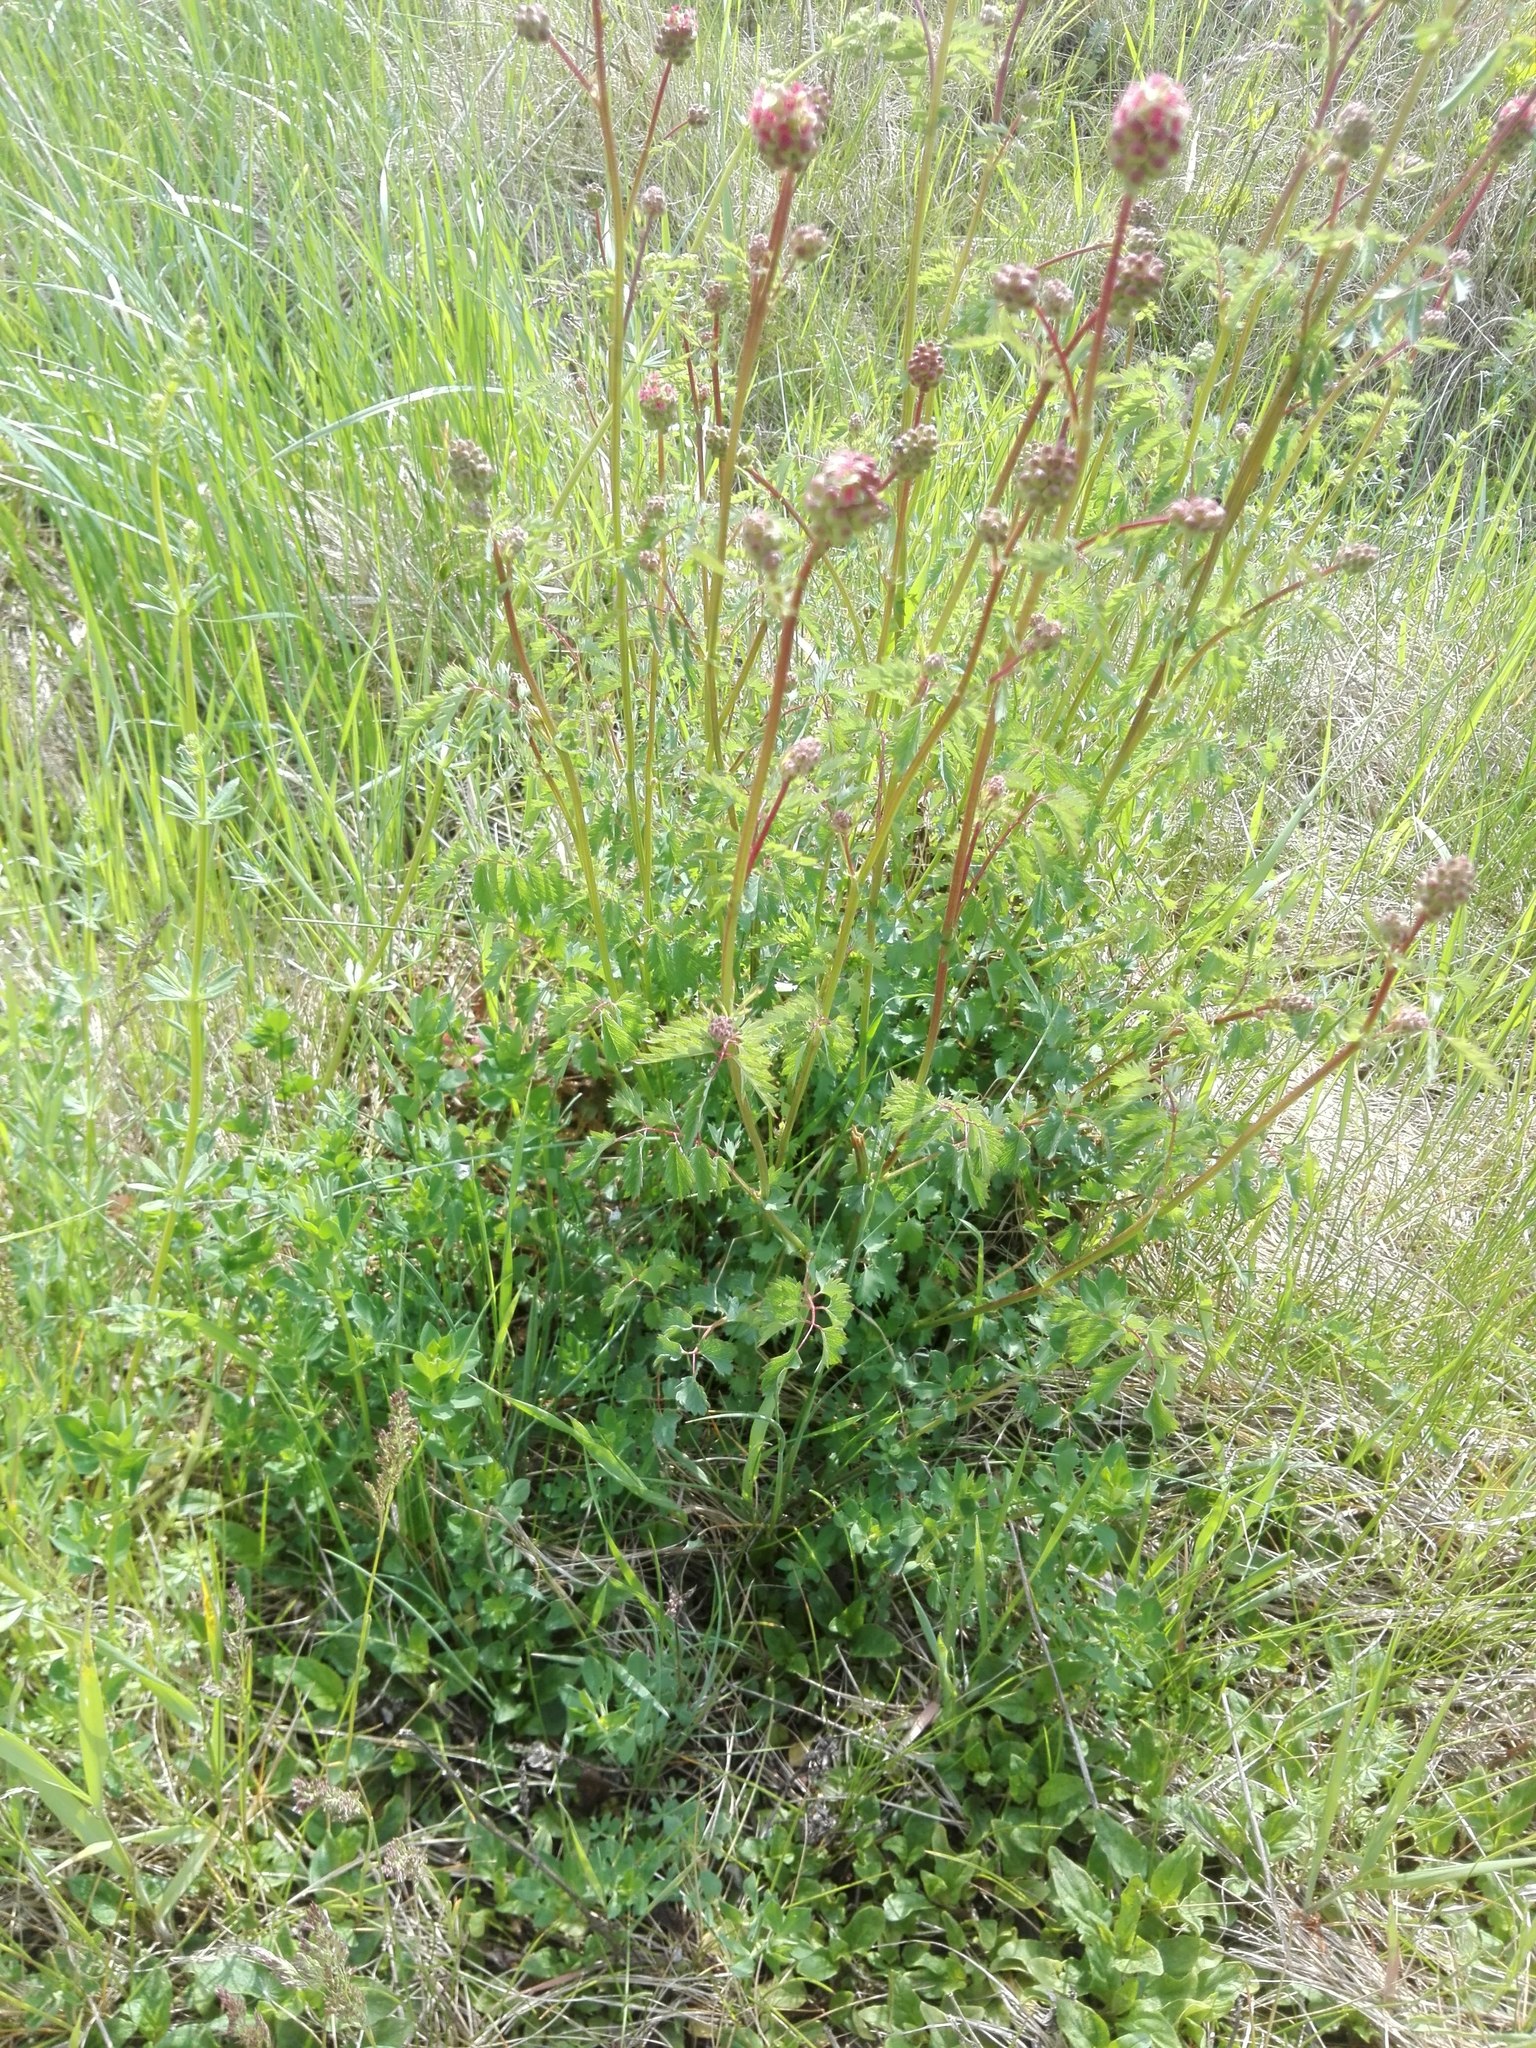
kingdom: Plantae
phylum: Tracheophyta
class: Magnoliopsida
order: Rosales
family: Rosaceae
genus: Poterium
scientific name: Poterium sanguisorba
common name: Salad burnet
